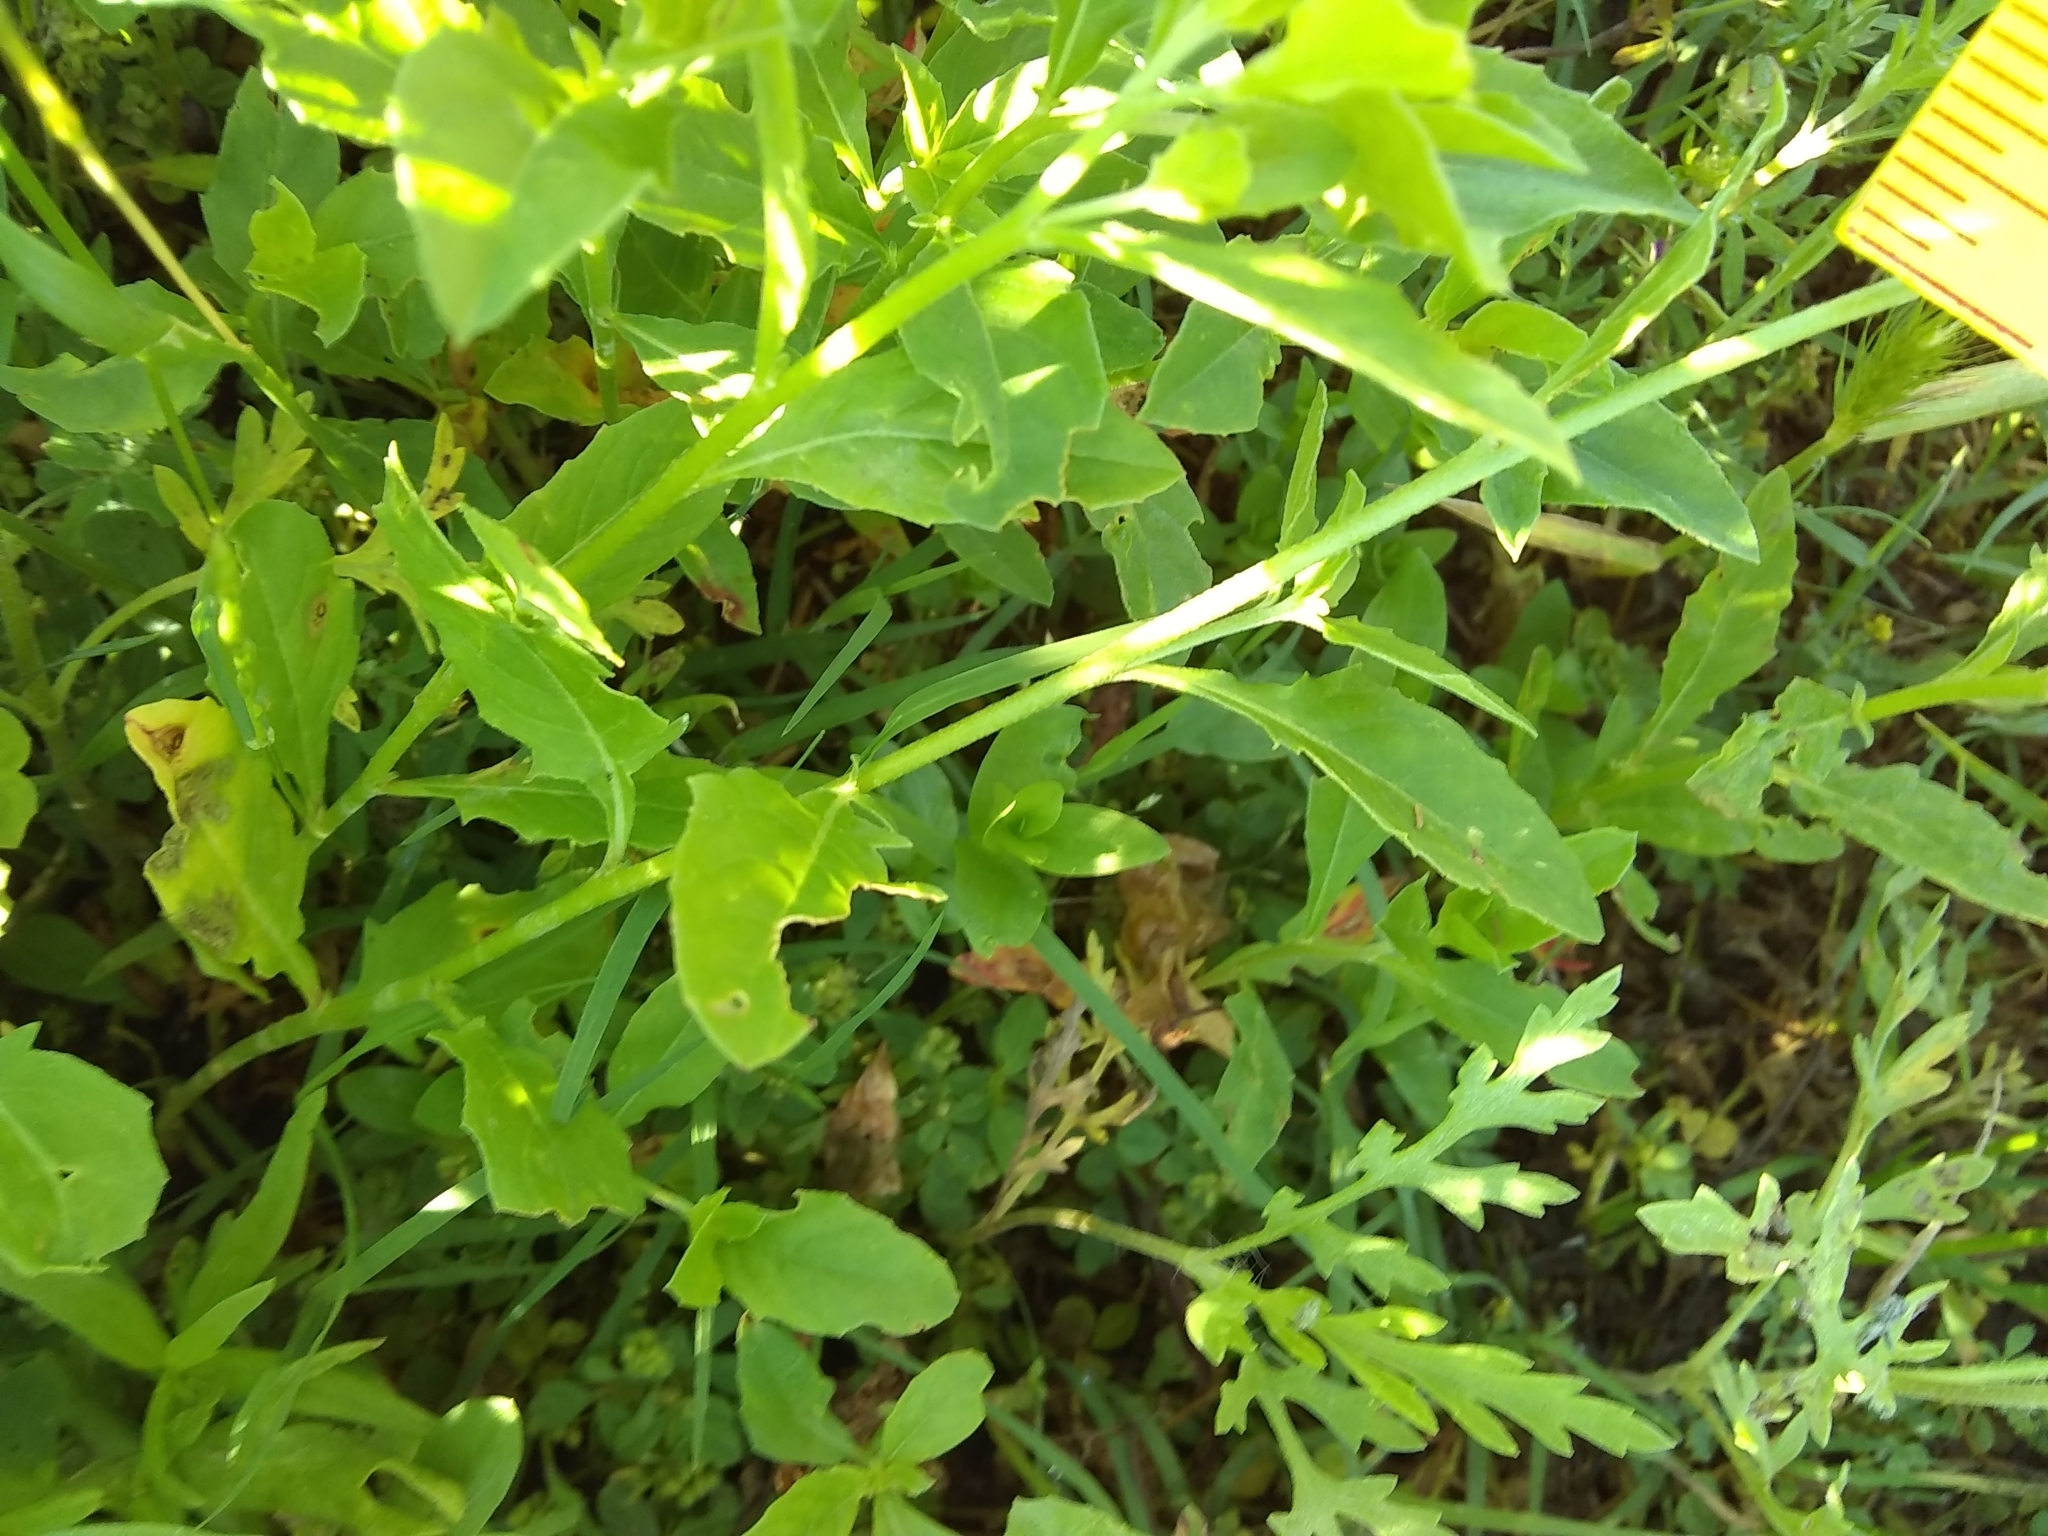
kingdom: Plantae
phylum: Tracheophyta
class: Magnoliopsida
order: Myrtales
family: Onagraceae
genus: Oenothera
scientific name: Oenothera speciosa
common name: White evening-primrose
